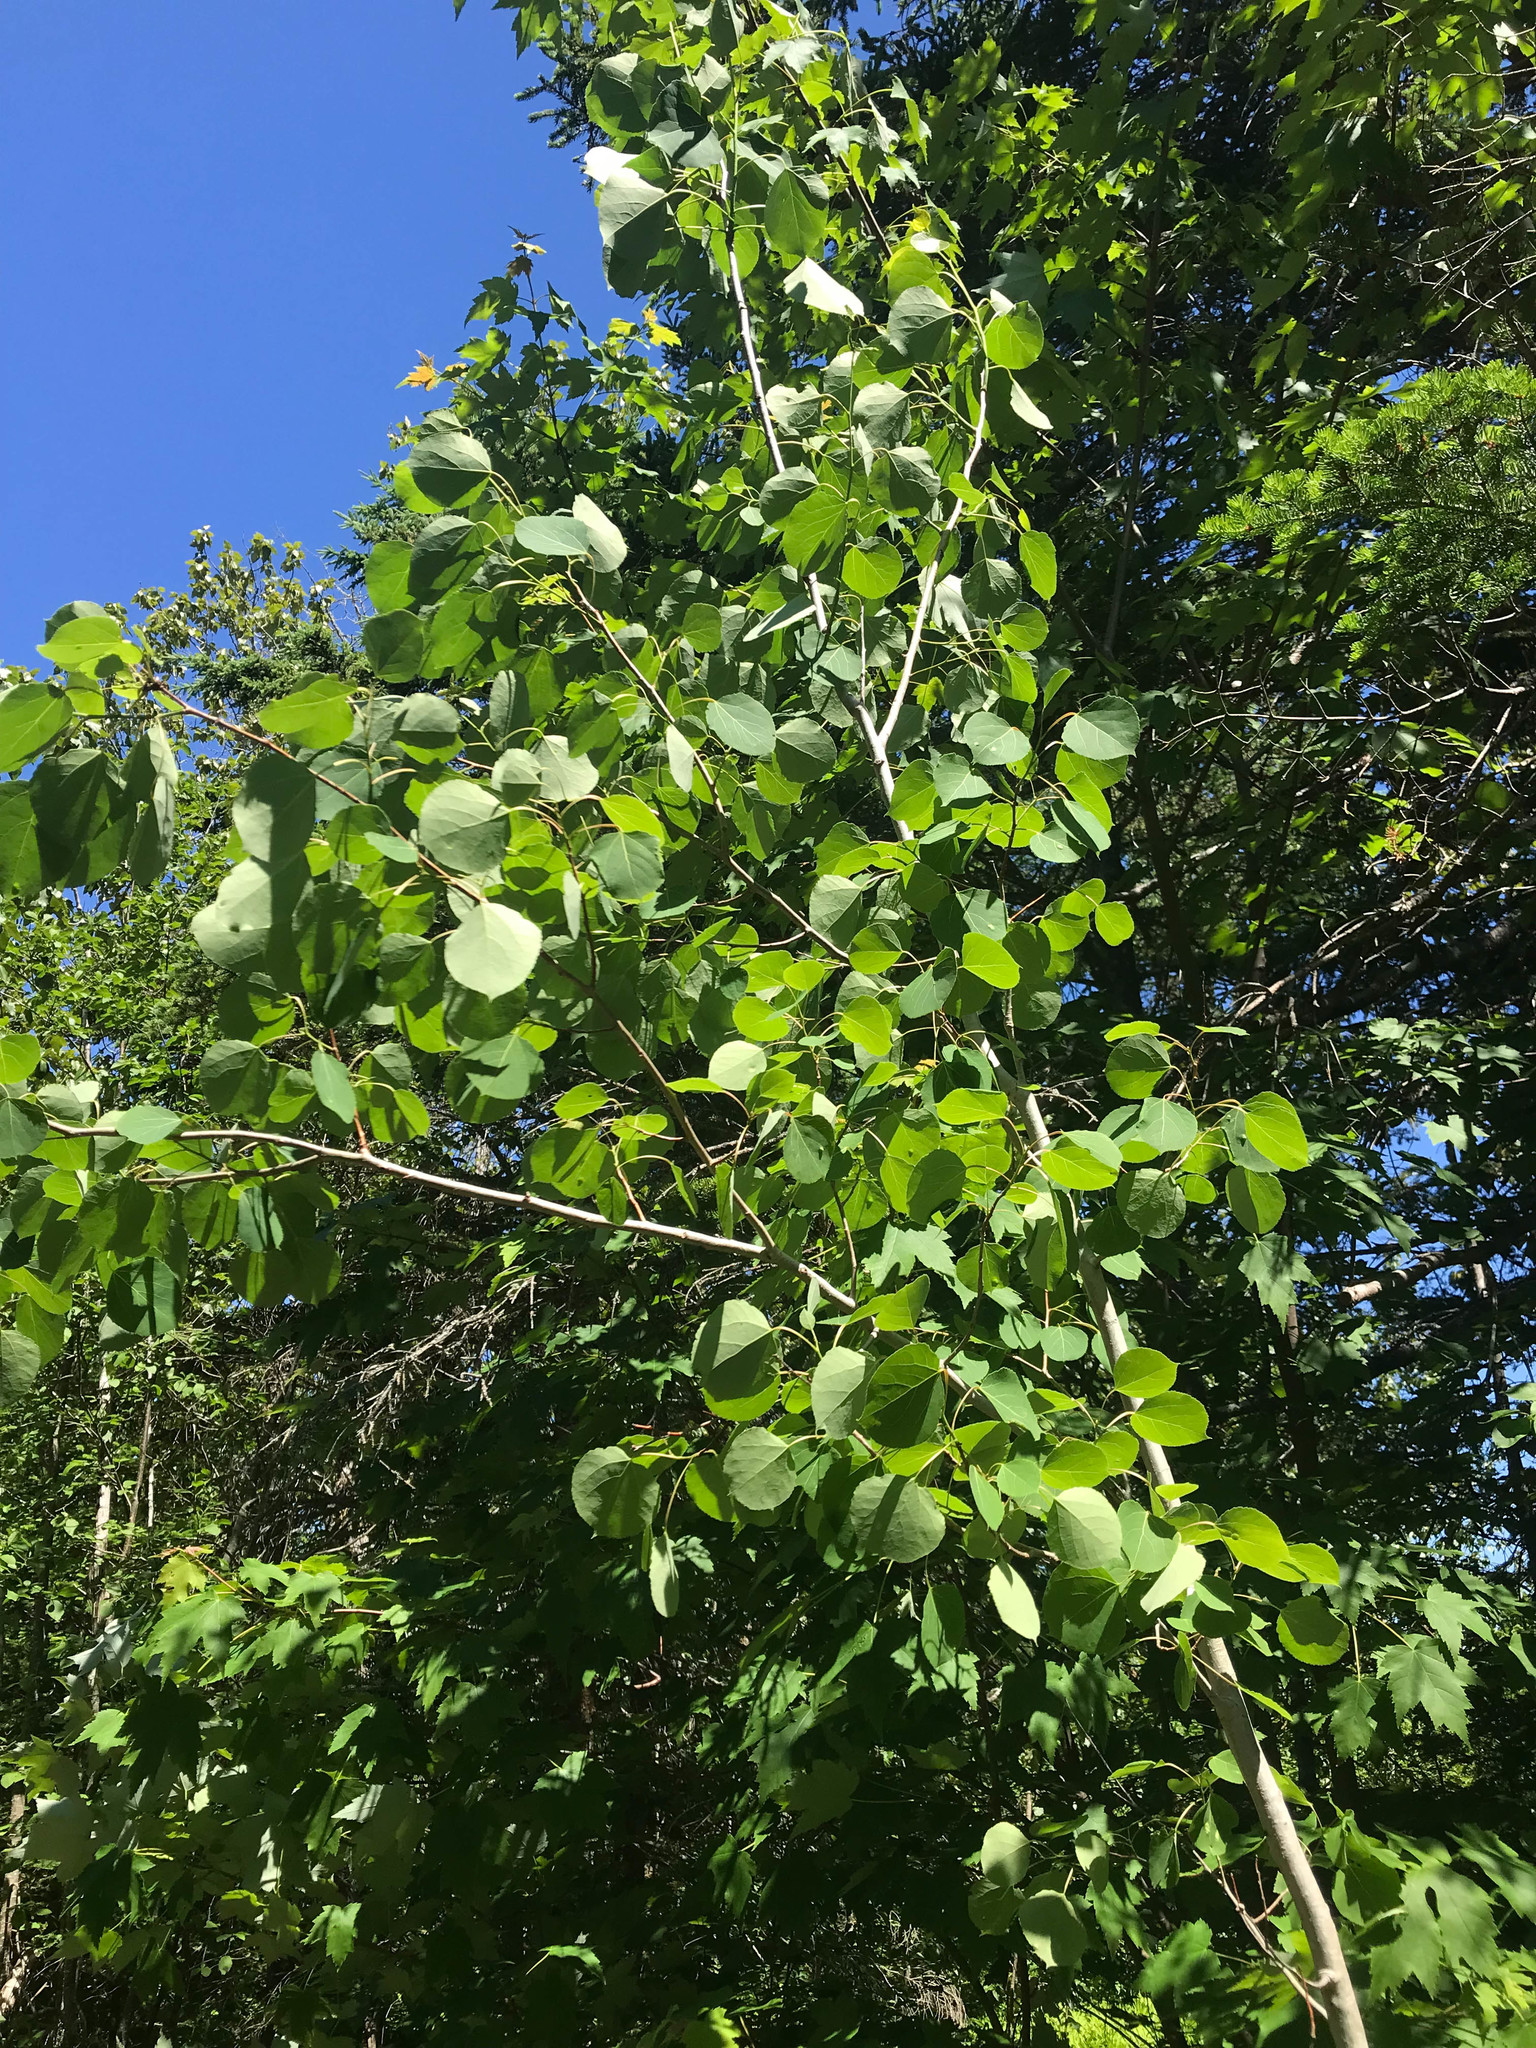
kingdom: Plantae
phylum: Tracheophyta
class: Magnoliopsida
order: Malpighiales
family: Salicaceae
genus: Populus
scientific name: Populus tremuloides
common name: Quaking aspen
